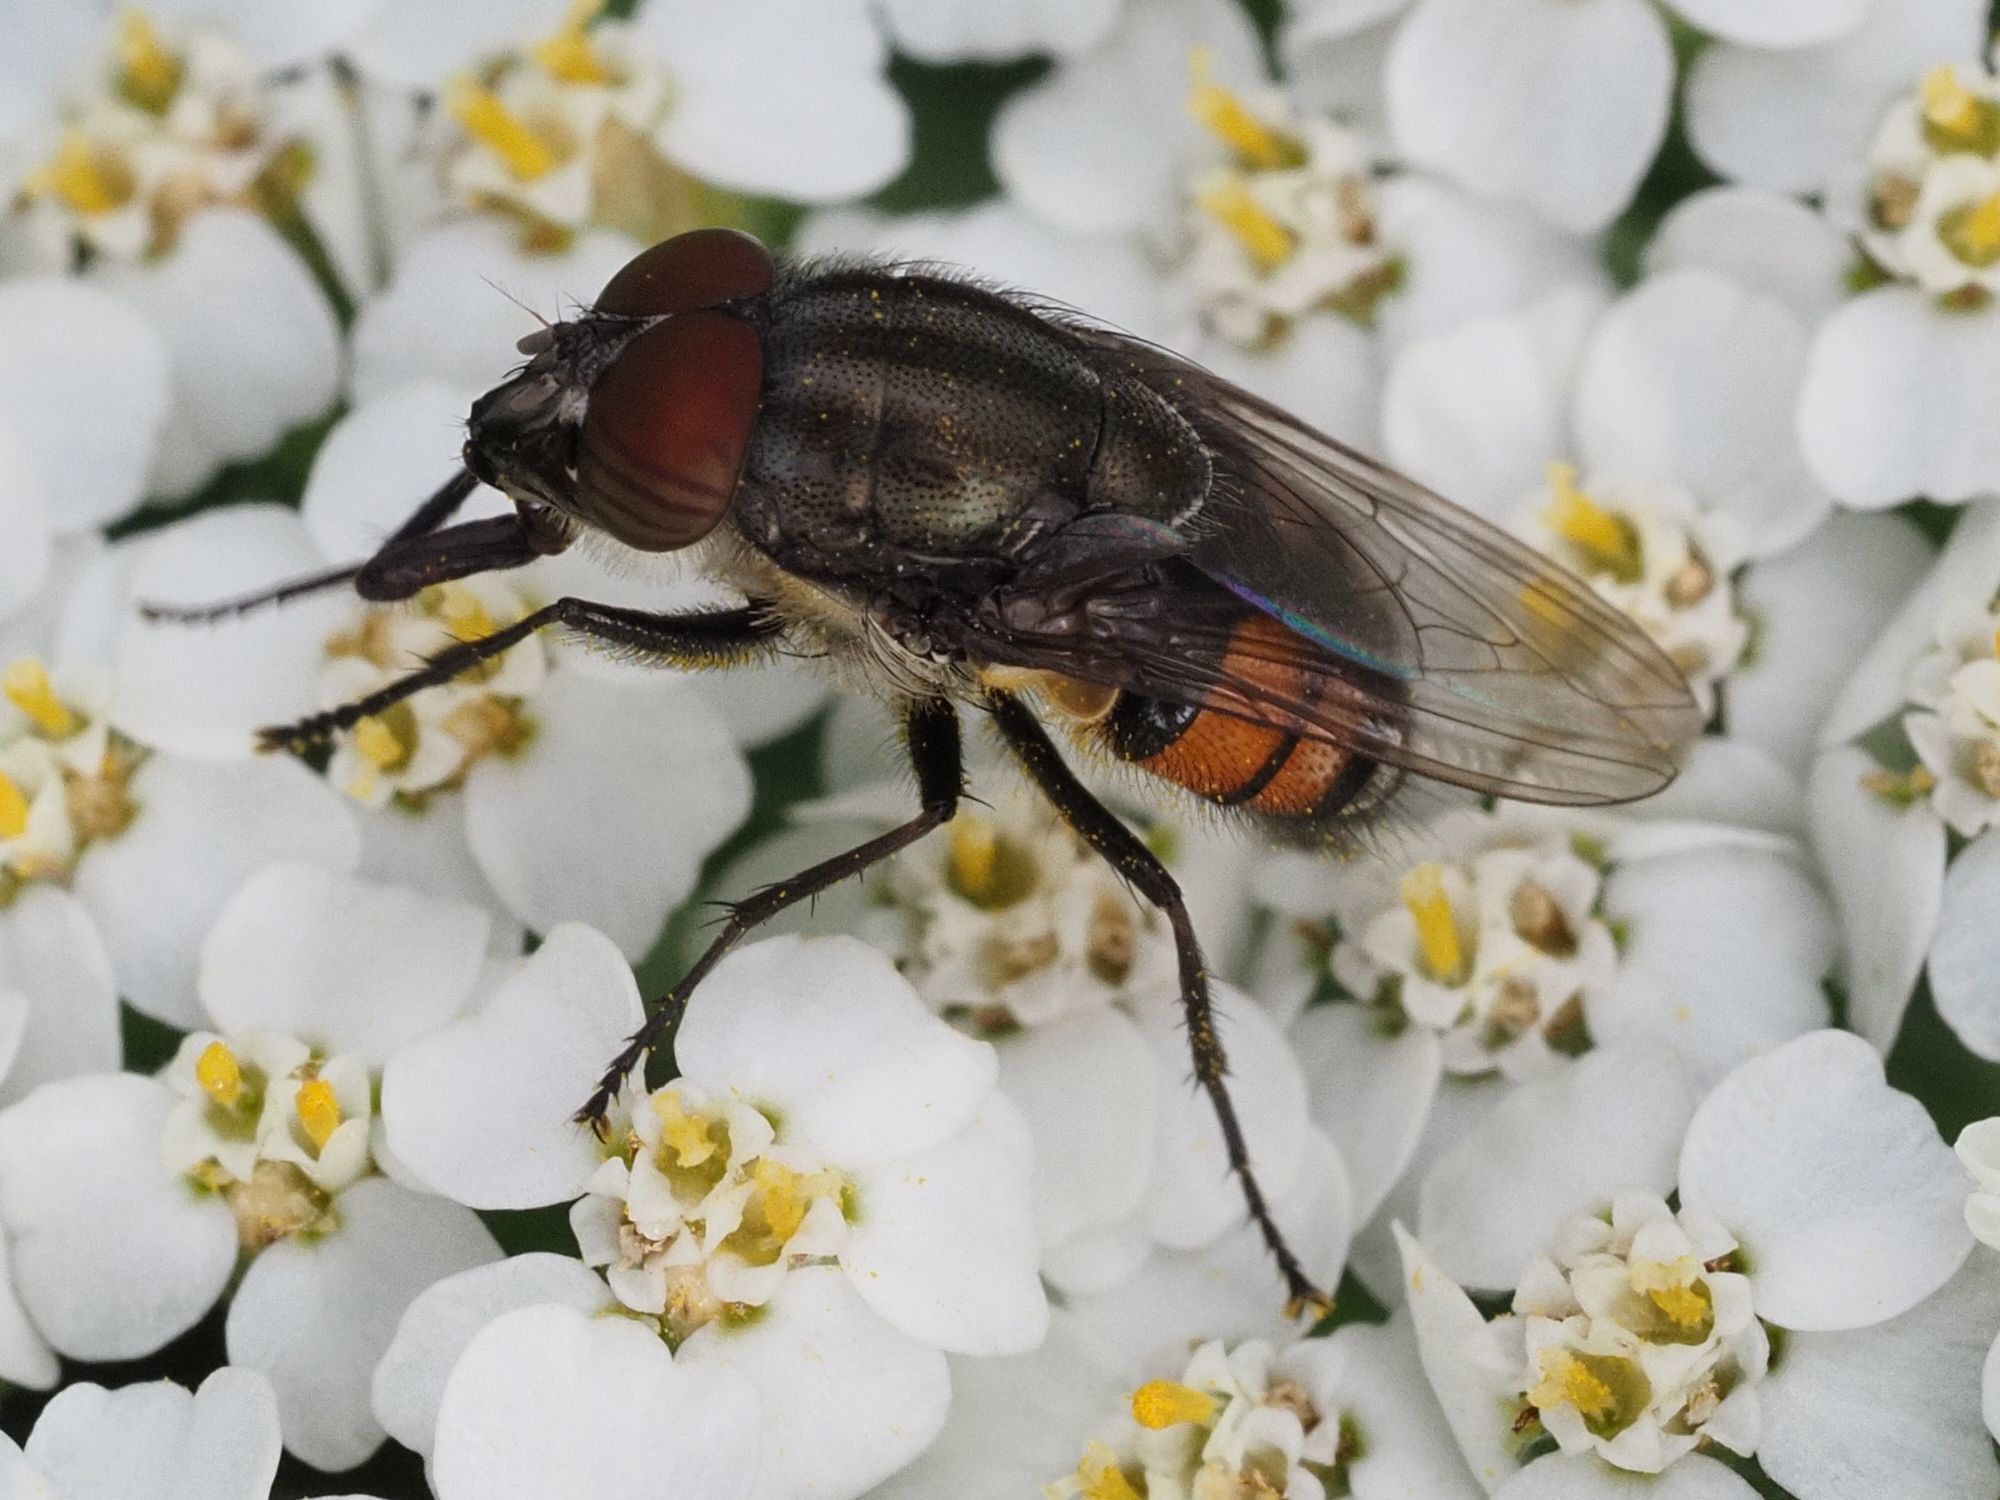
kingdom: Animalia
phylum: Arthropoda
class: Insecta
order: Diptera
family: Calliphoridae
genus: Stomorhina
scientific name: Stomorhina lunata
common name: Locust blowfly
